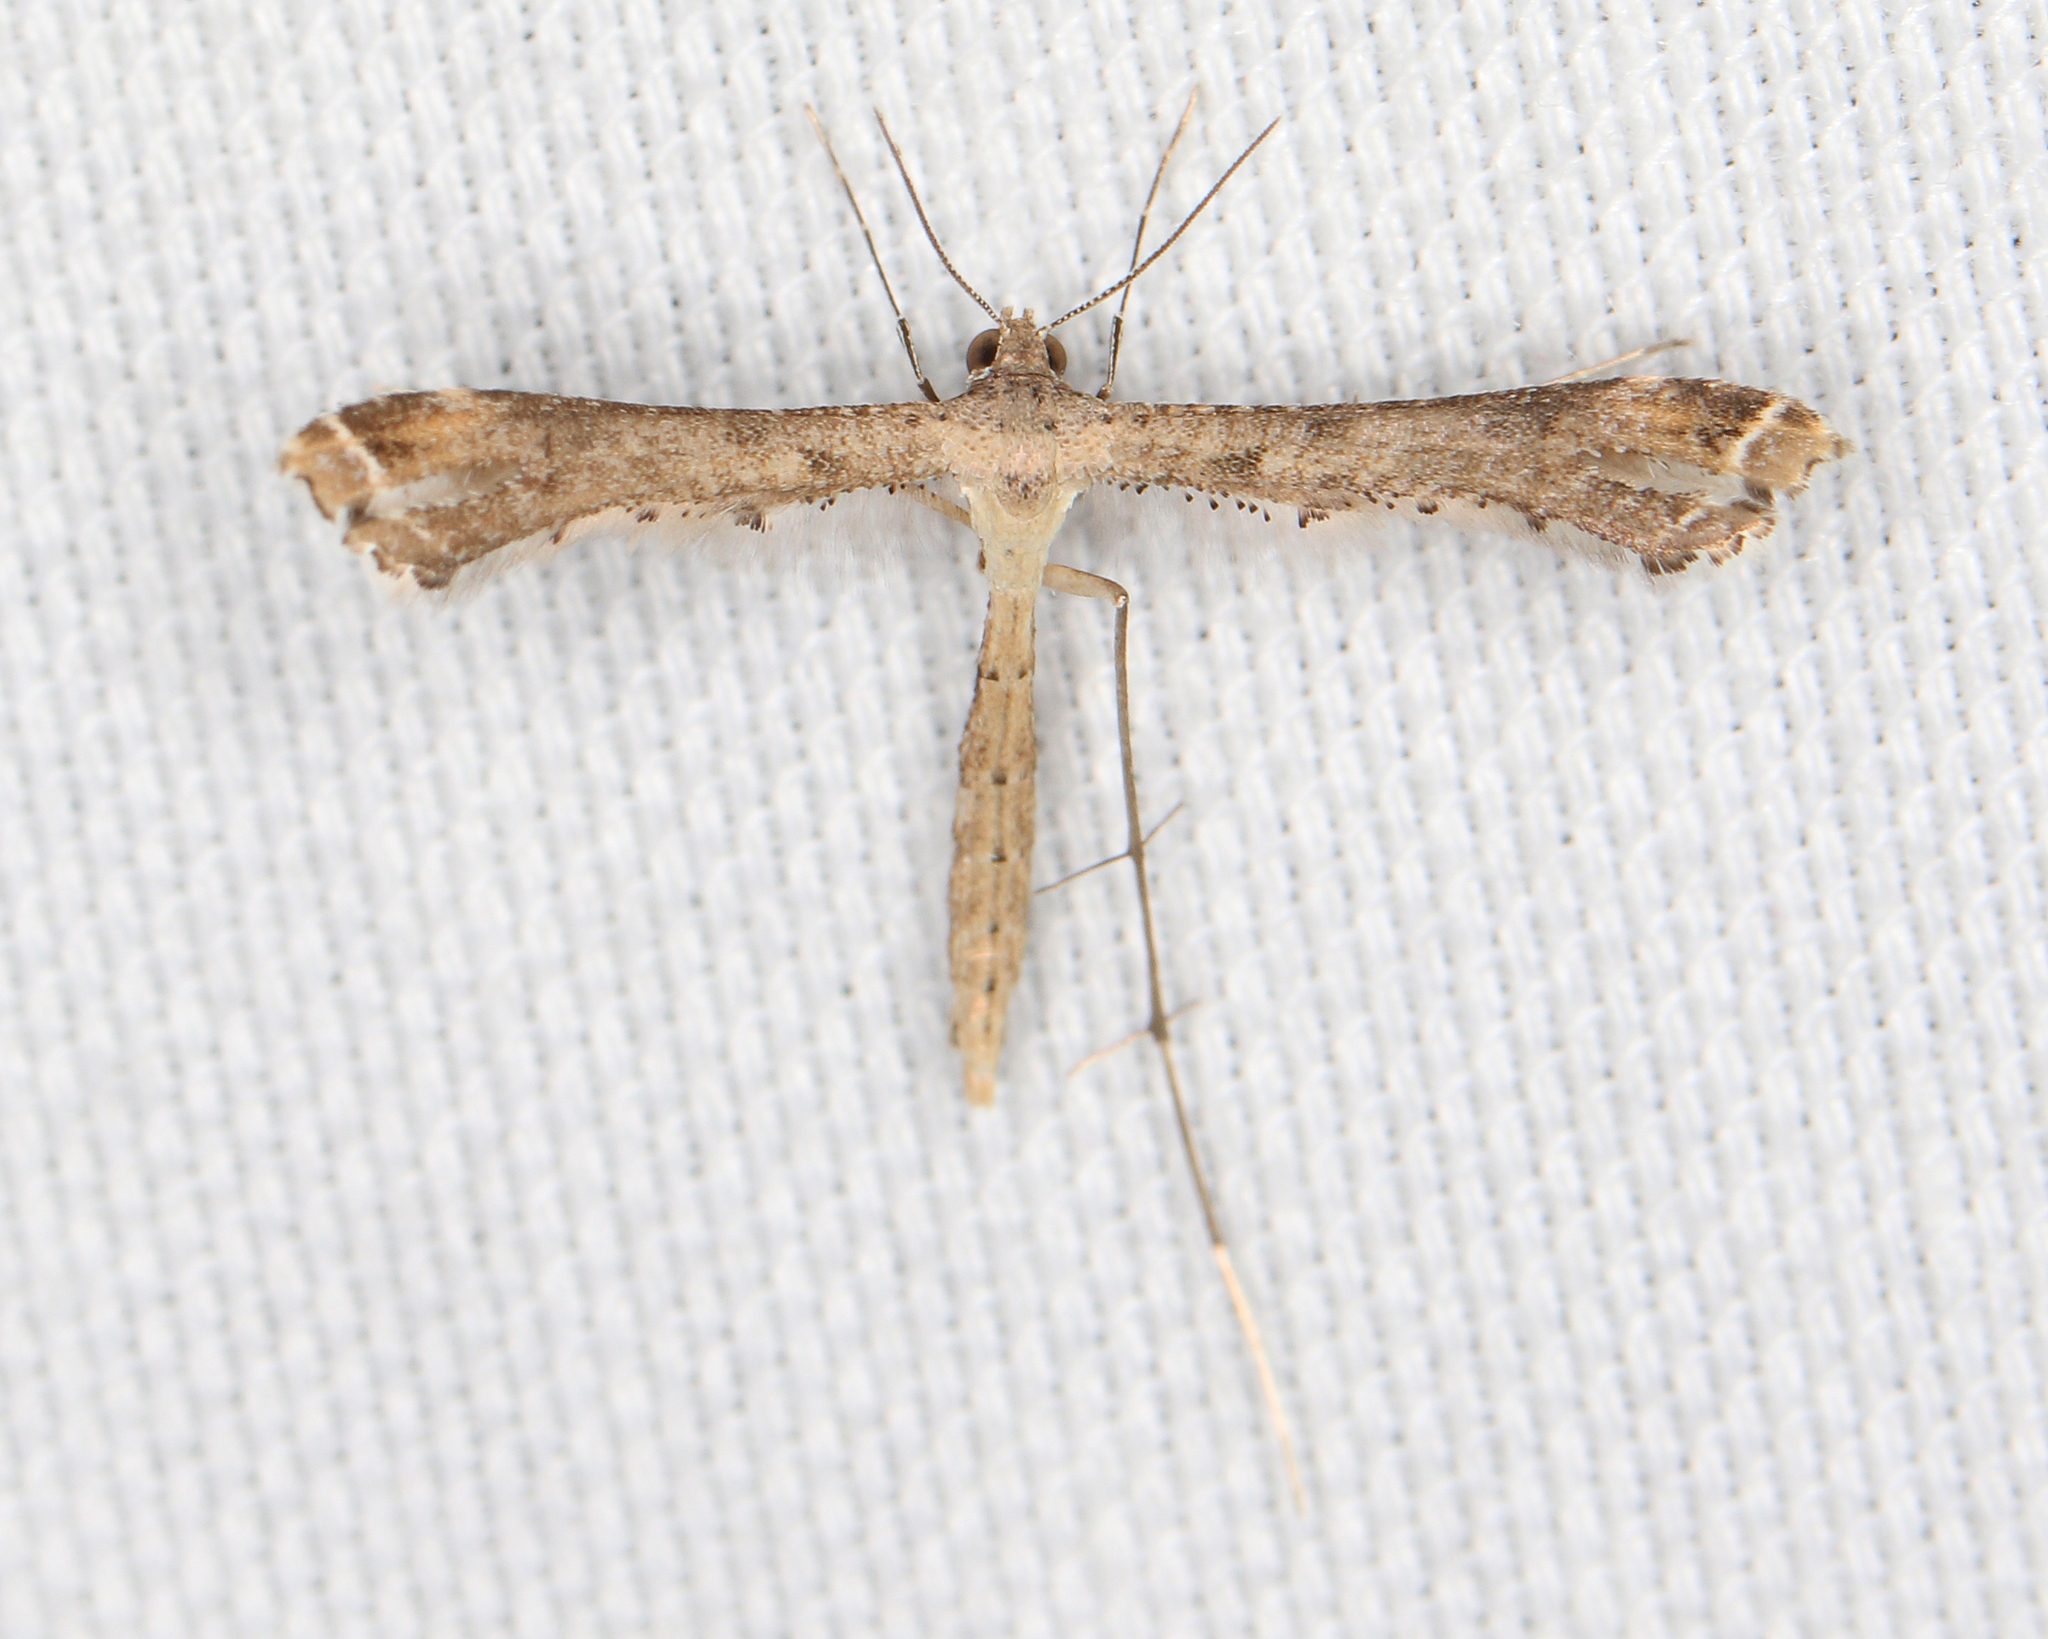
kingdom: Animalia
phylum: Arthropoda
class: Insecta
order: Lepidoptera
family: Pterophoridae
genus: Stenoptilodes
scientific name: Stenoptilodes brevipennis
